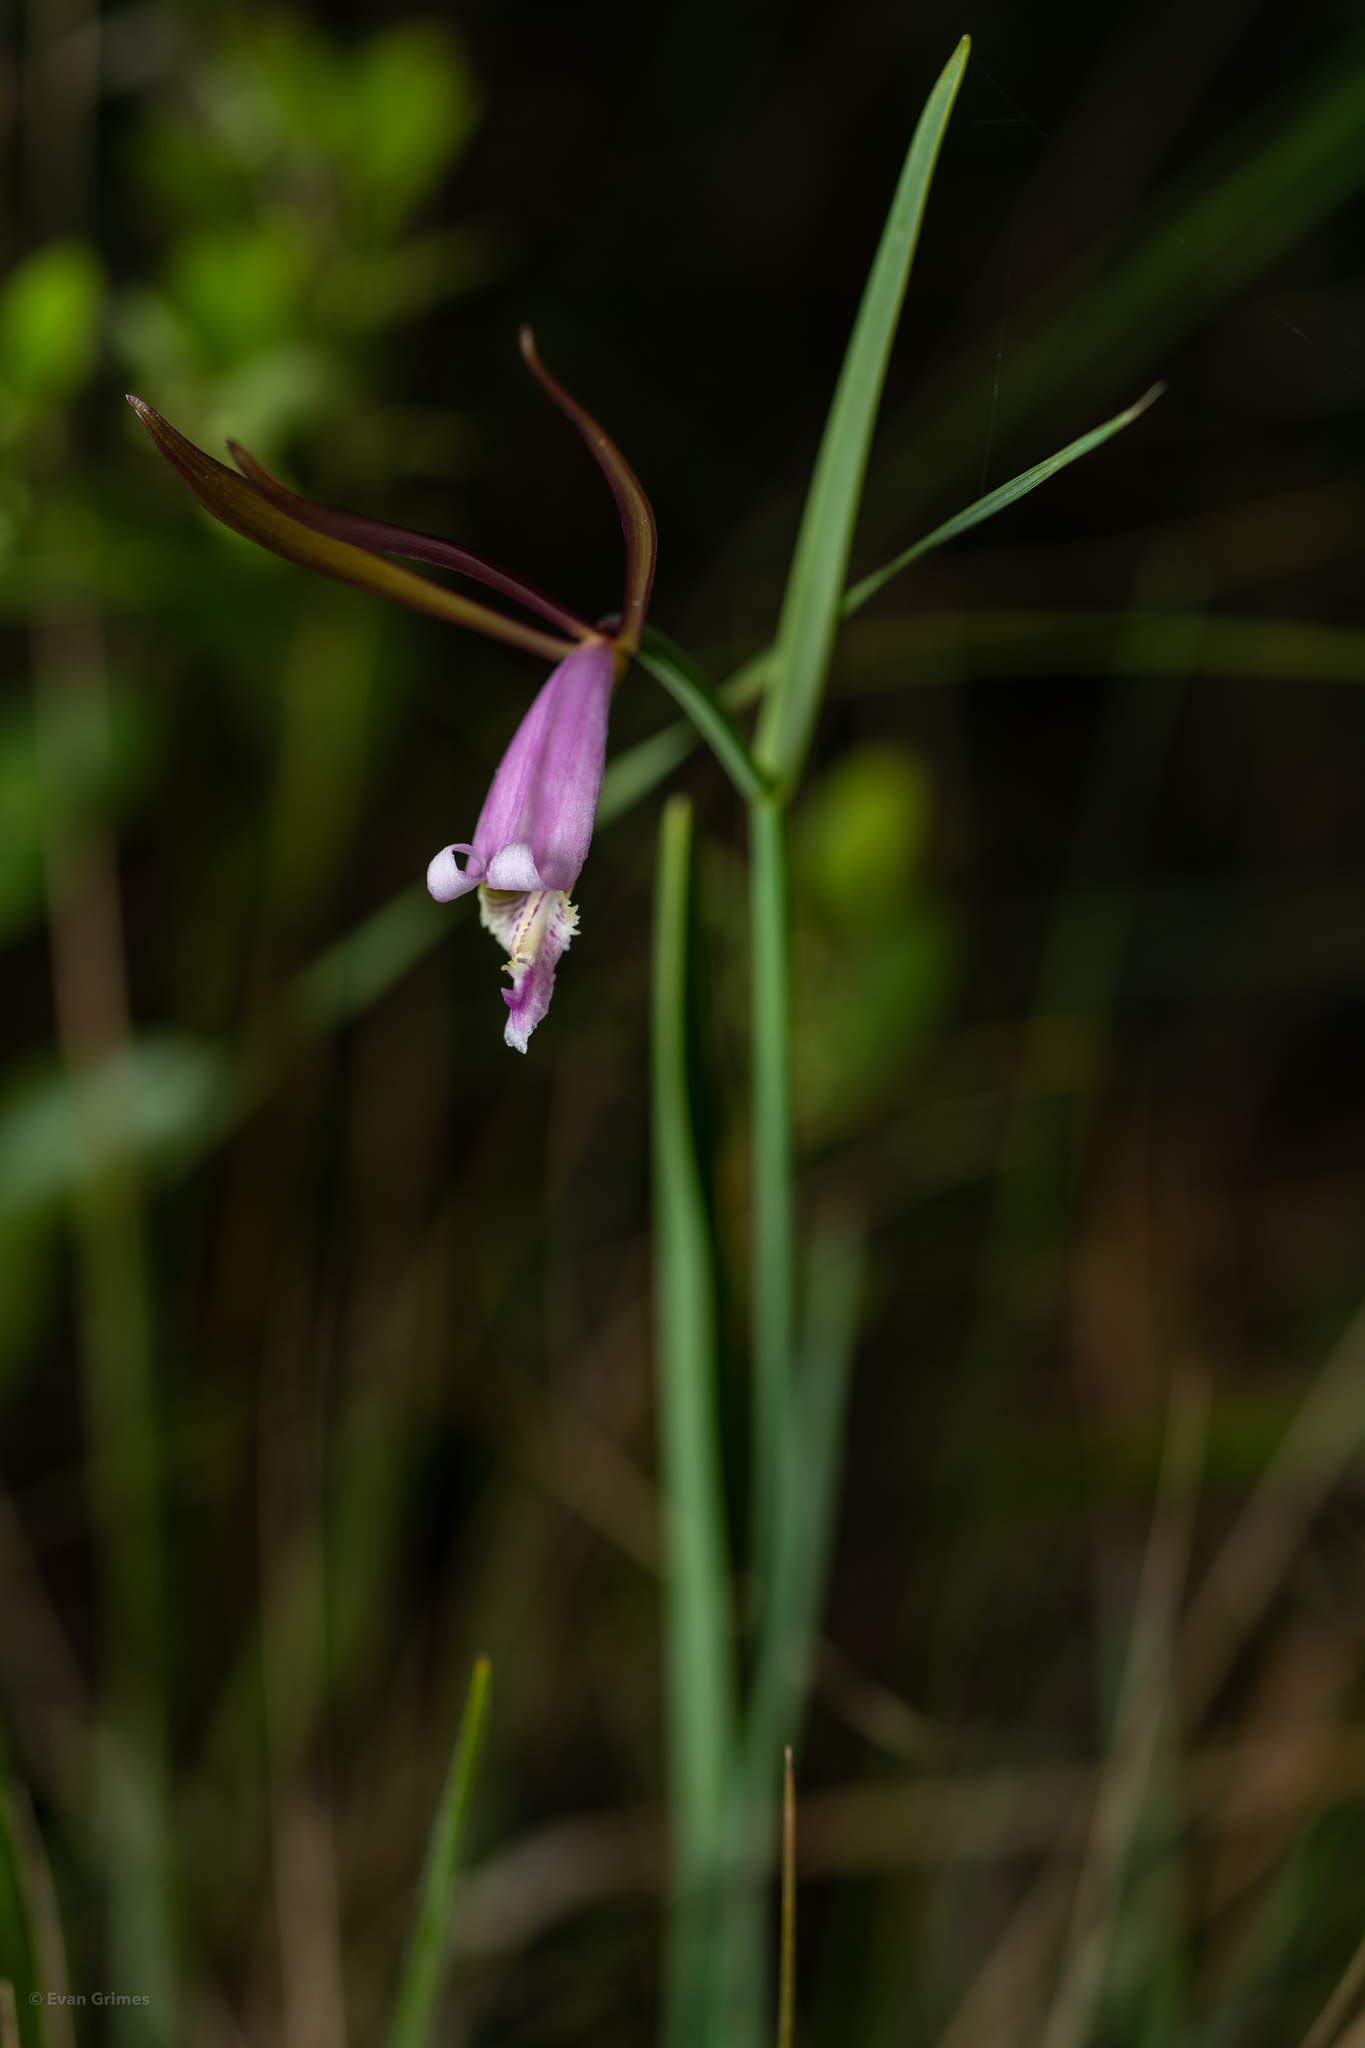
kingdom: Plantae
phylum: Tracheophyta
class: Liliopsida
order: Asparagales
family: Orchidaceae
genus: Cleistesiopsis
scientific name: Cleistesiopsis oricamporum
